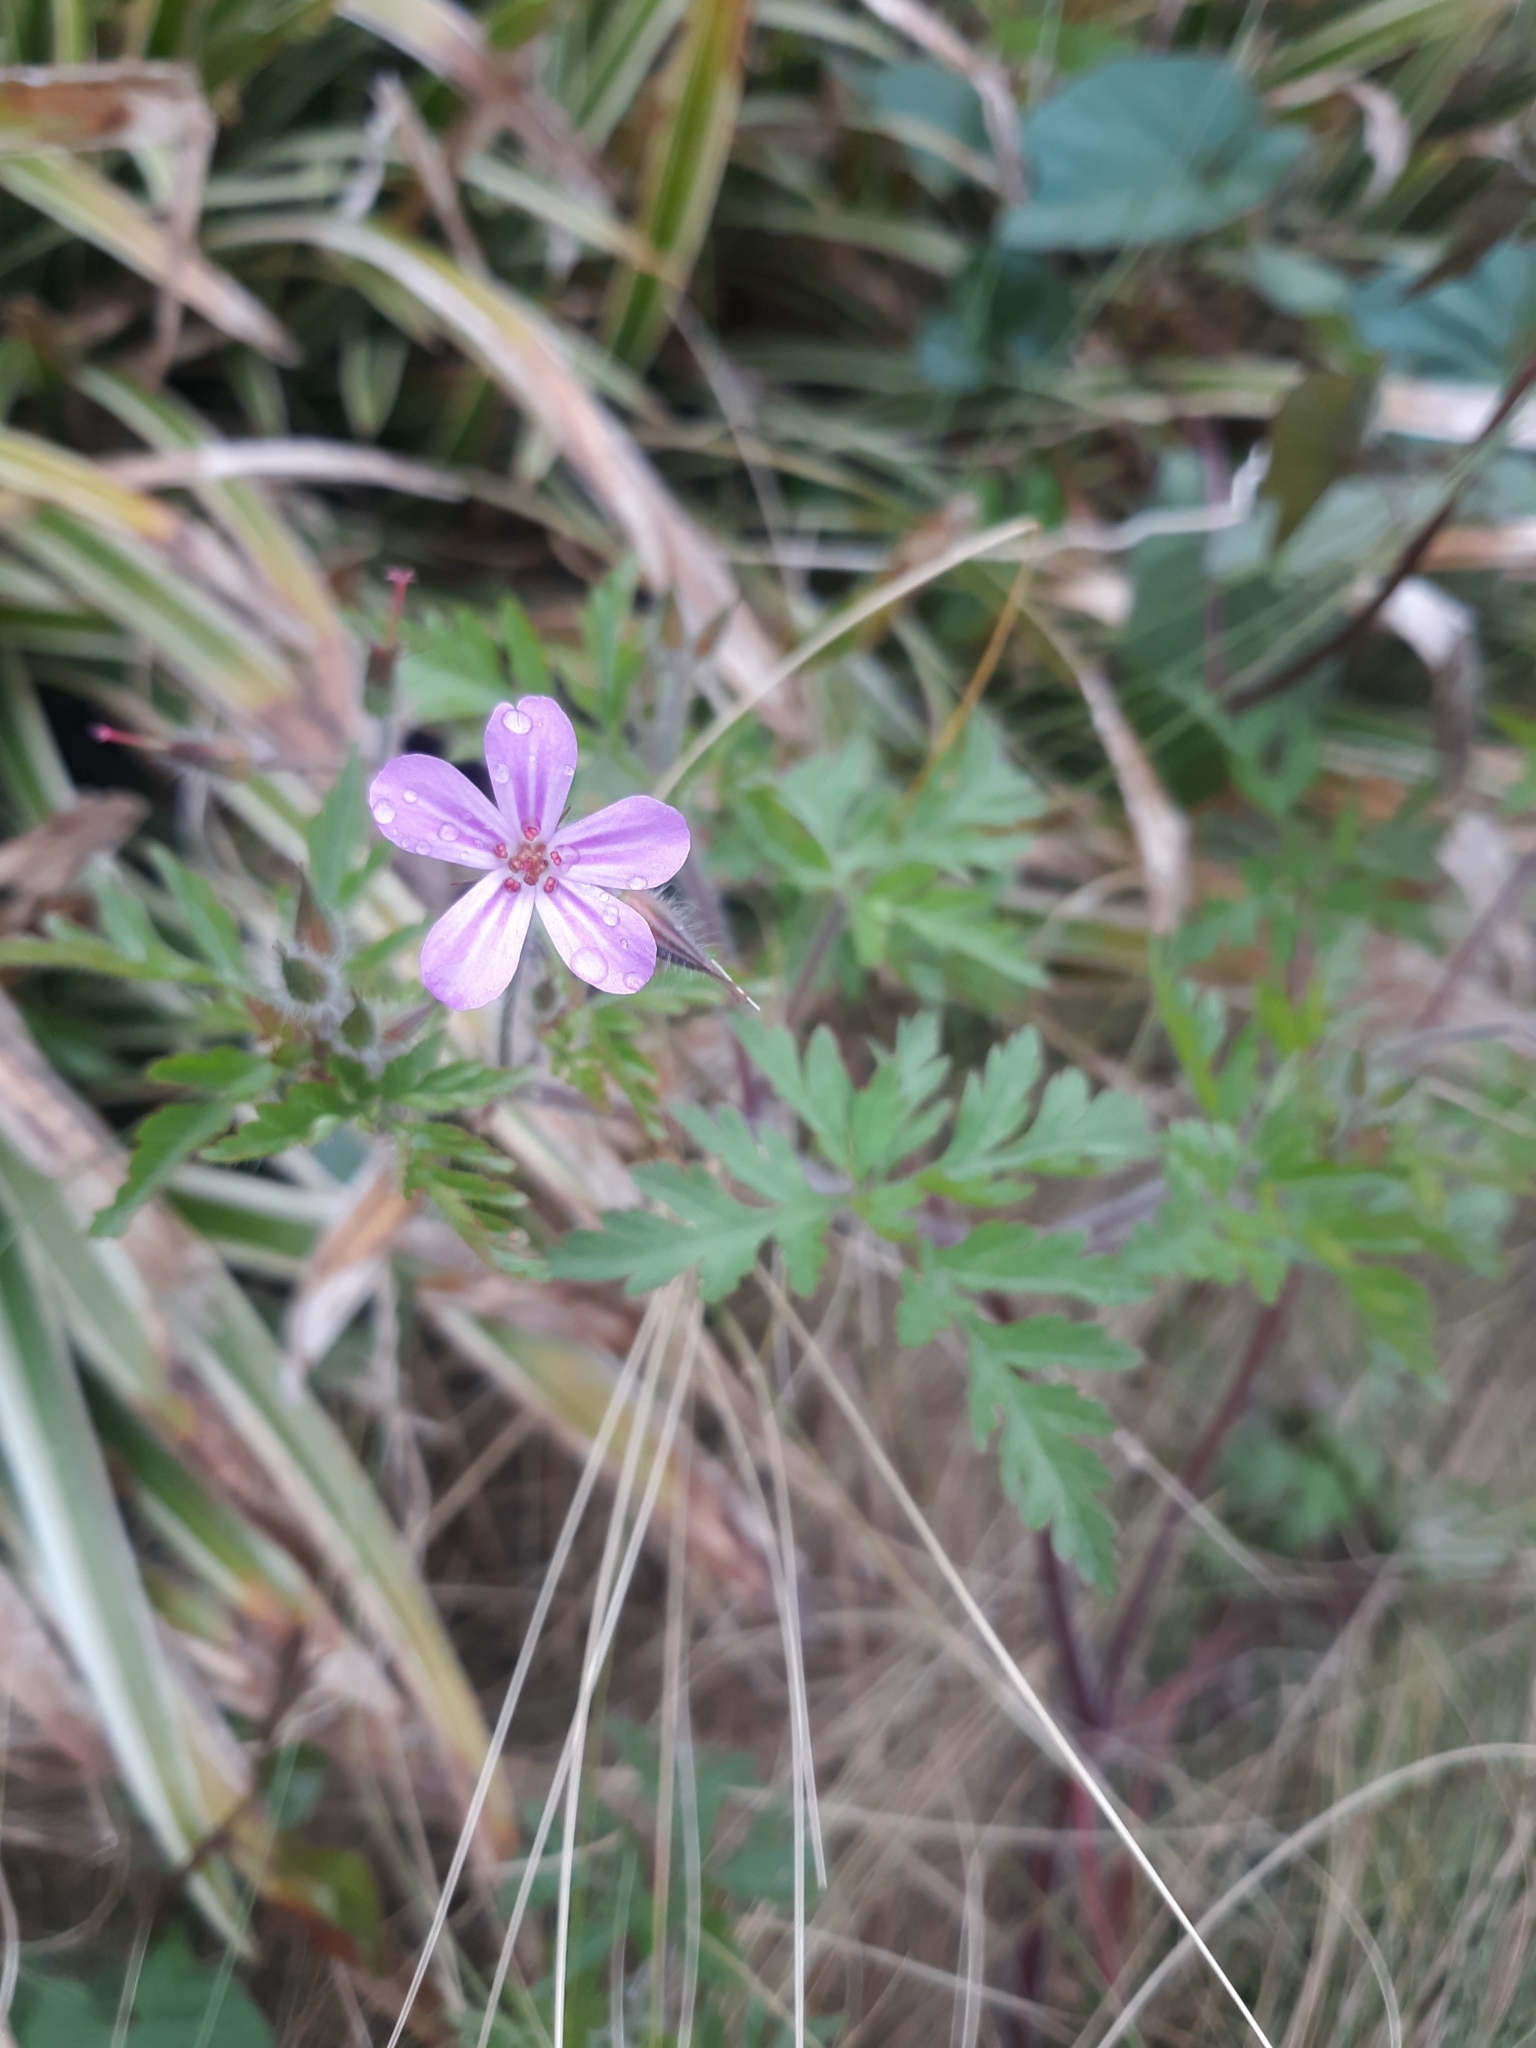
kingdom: Plantae
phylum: Tracheophyta
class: Magnoliopsida
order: Geraniales
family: Geraniaceae
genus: Geranium
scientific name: Geranium robertianum
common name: Herb-robert
